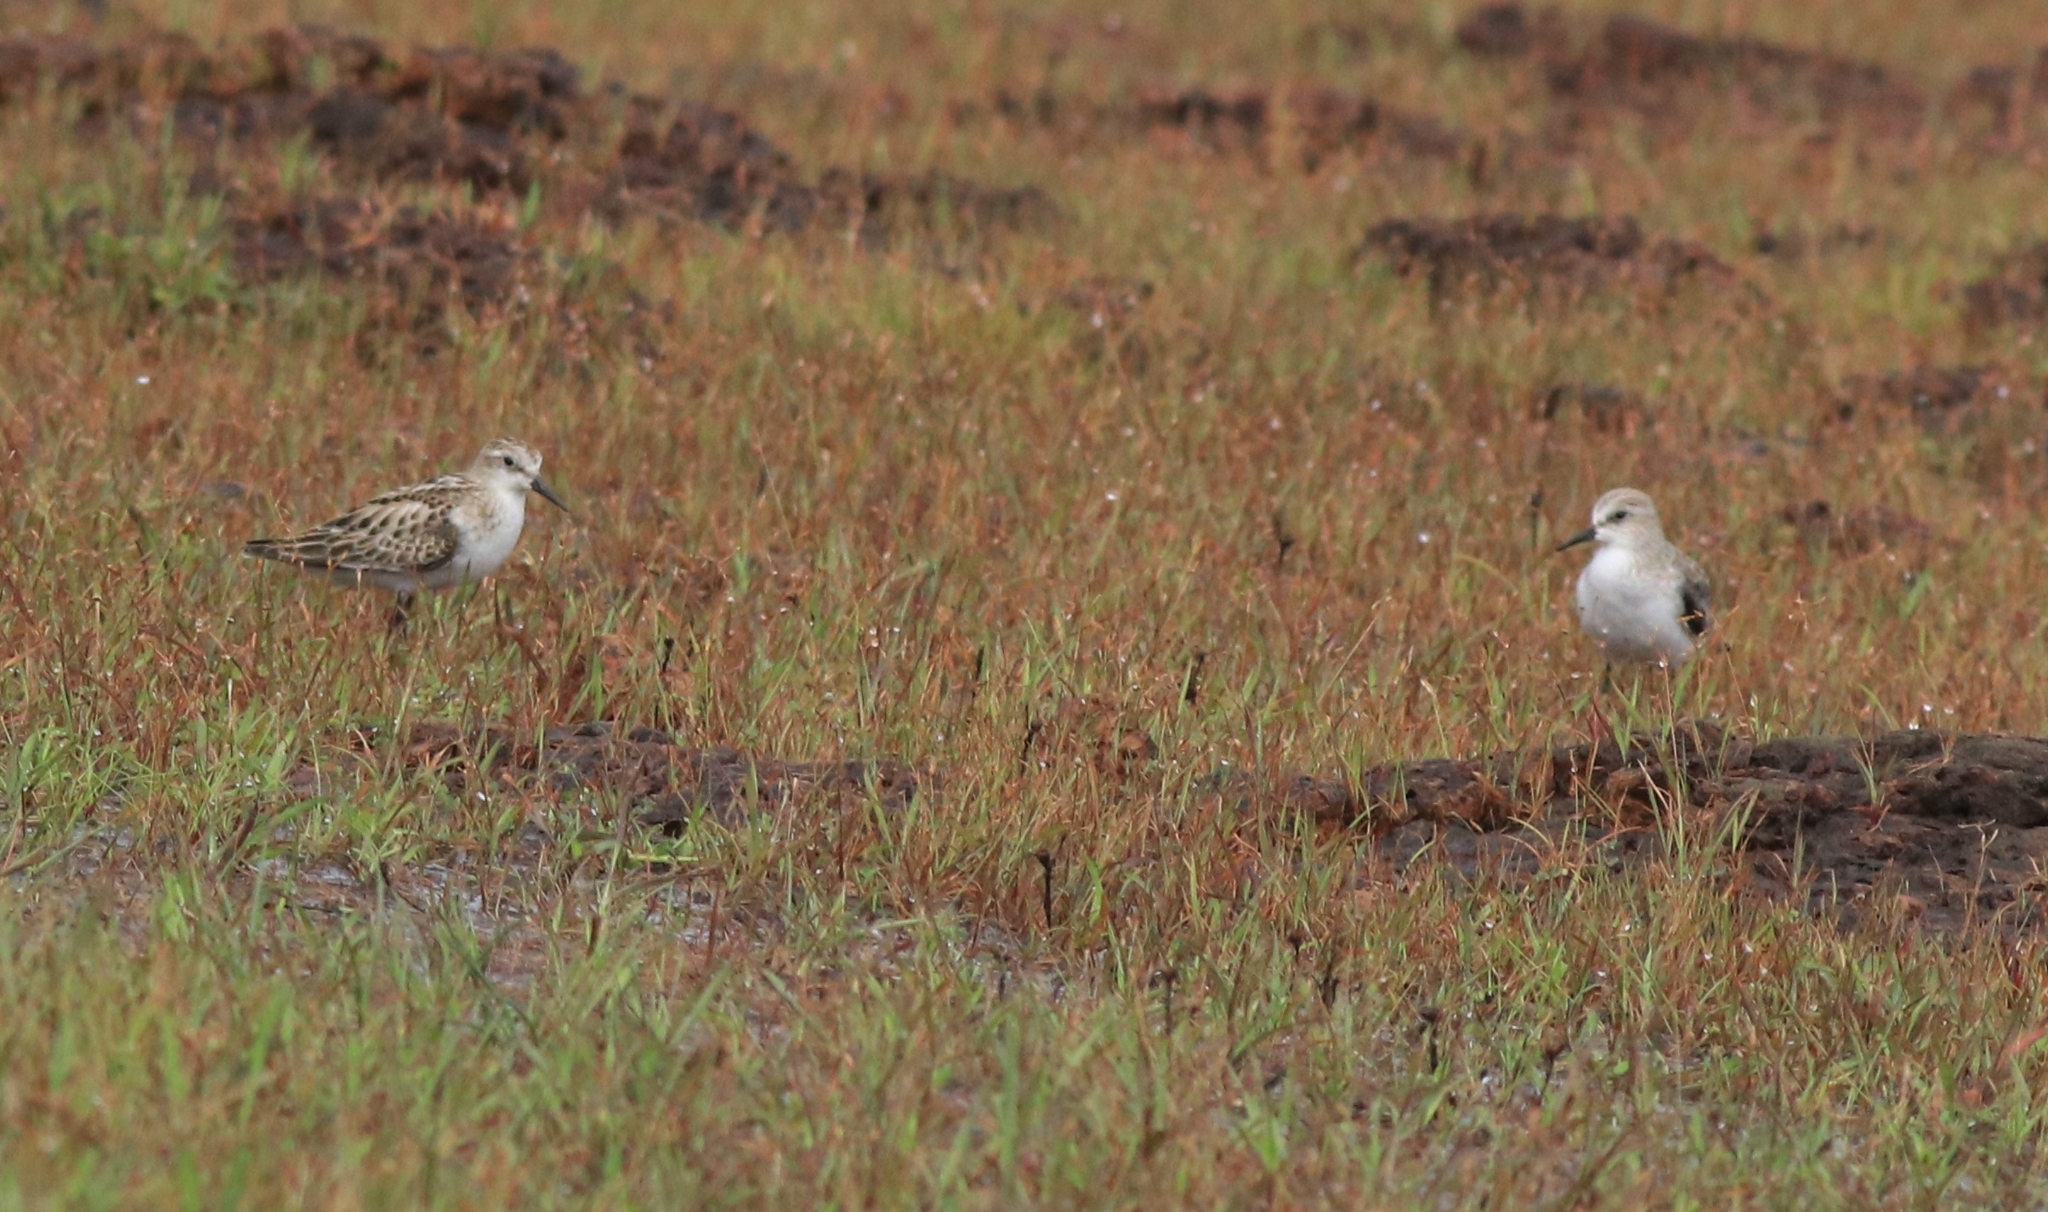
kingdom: Animalia
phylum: Chordata
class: Aves
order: Charadriiformes
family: Scolopacidae
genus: Calidris
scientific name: Calidris minuta
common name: Little stint
